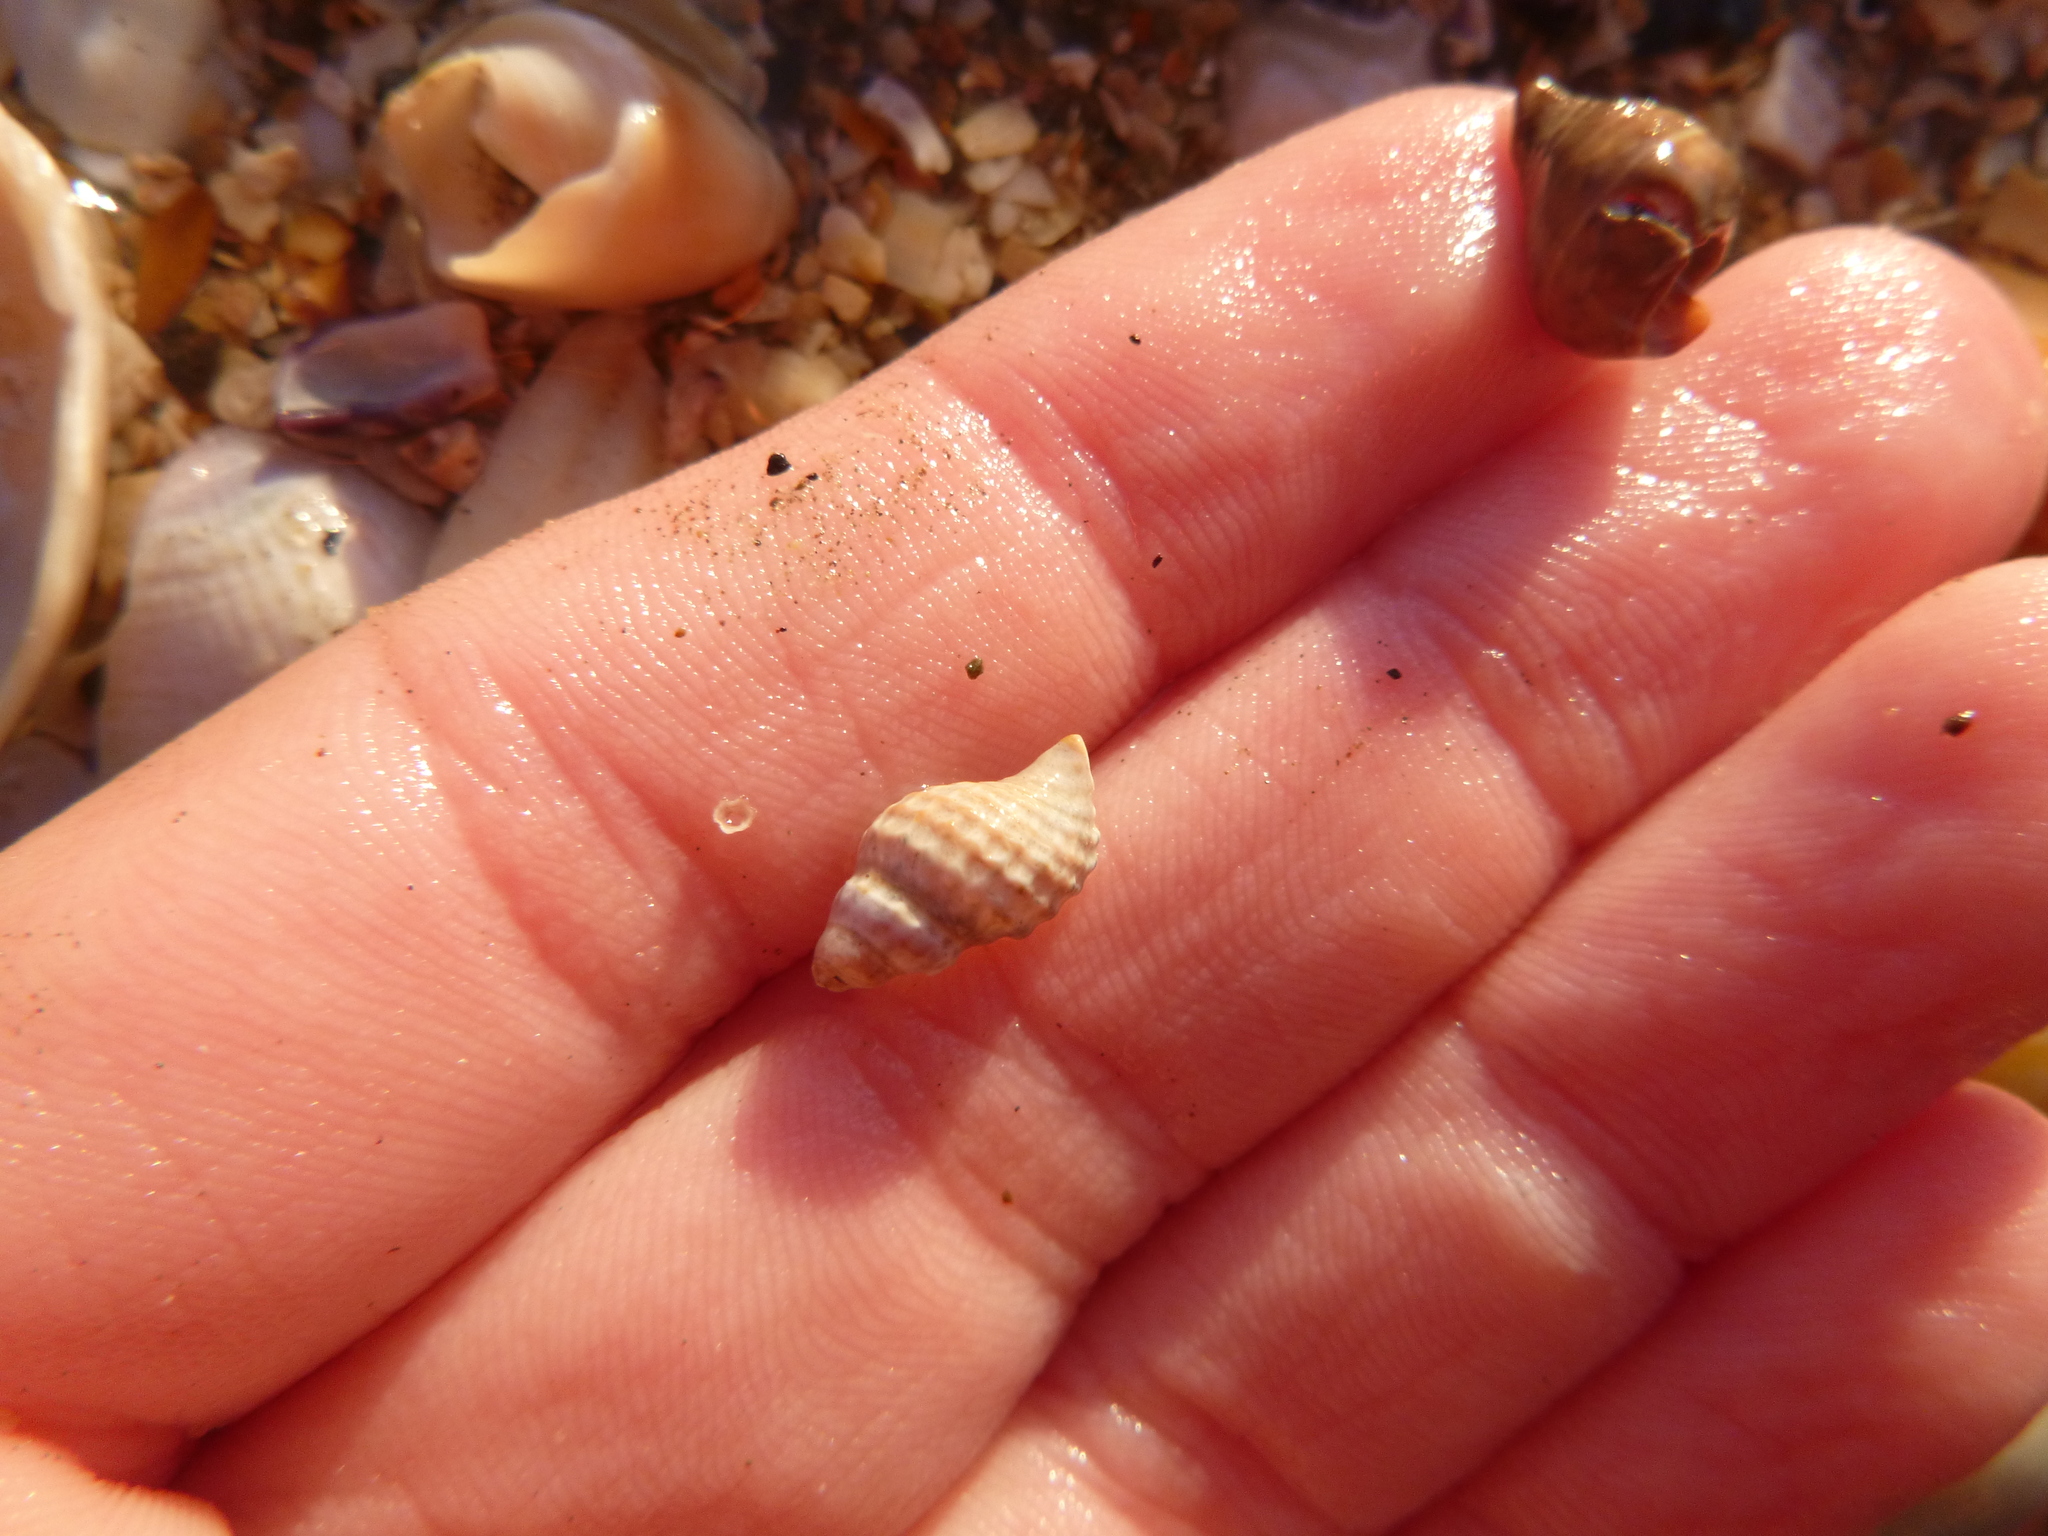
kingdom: Animalia
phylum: Mollusca
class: Gastropoda
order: Neogastropoda
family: Muricidae
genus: Xymene
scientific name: Xymene plebeius
